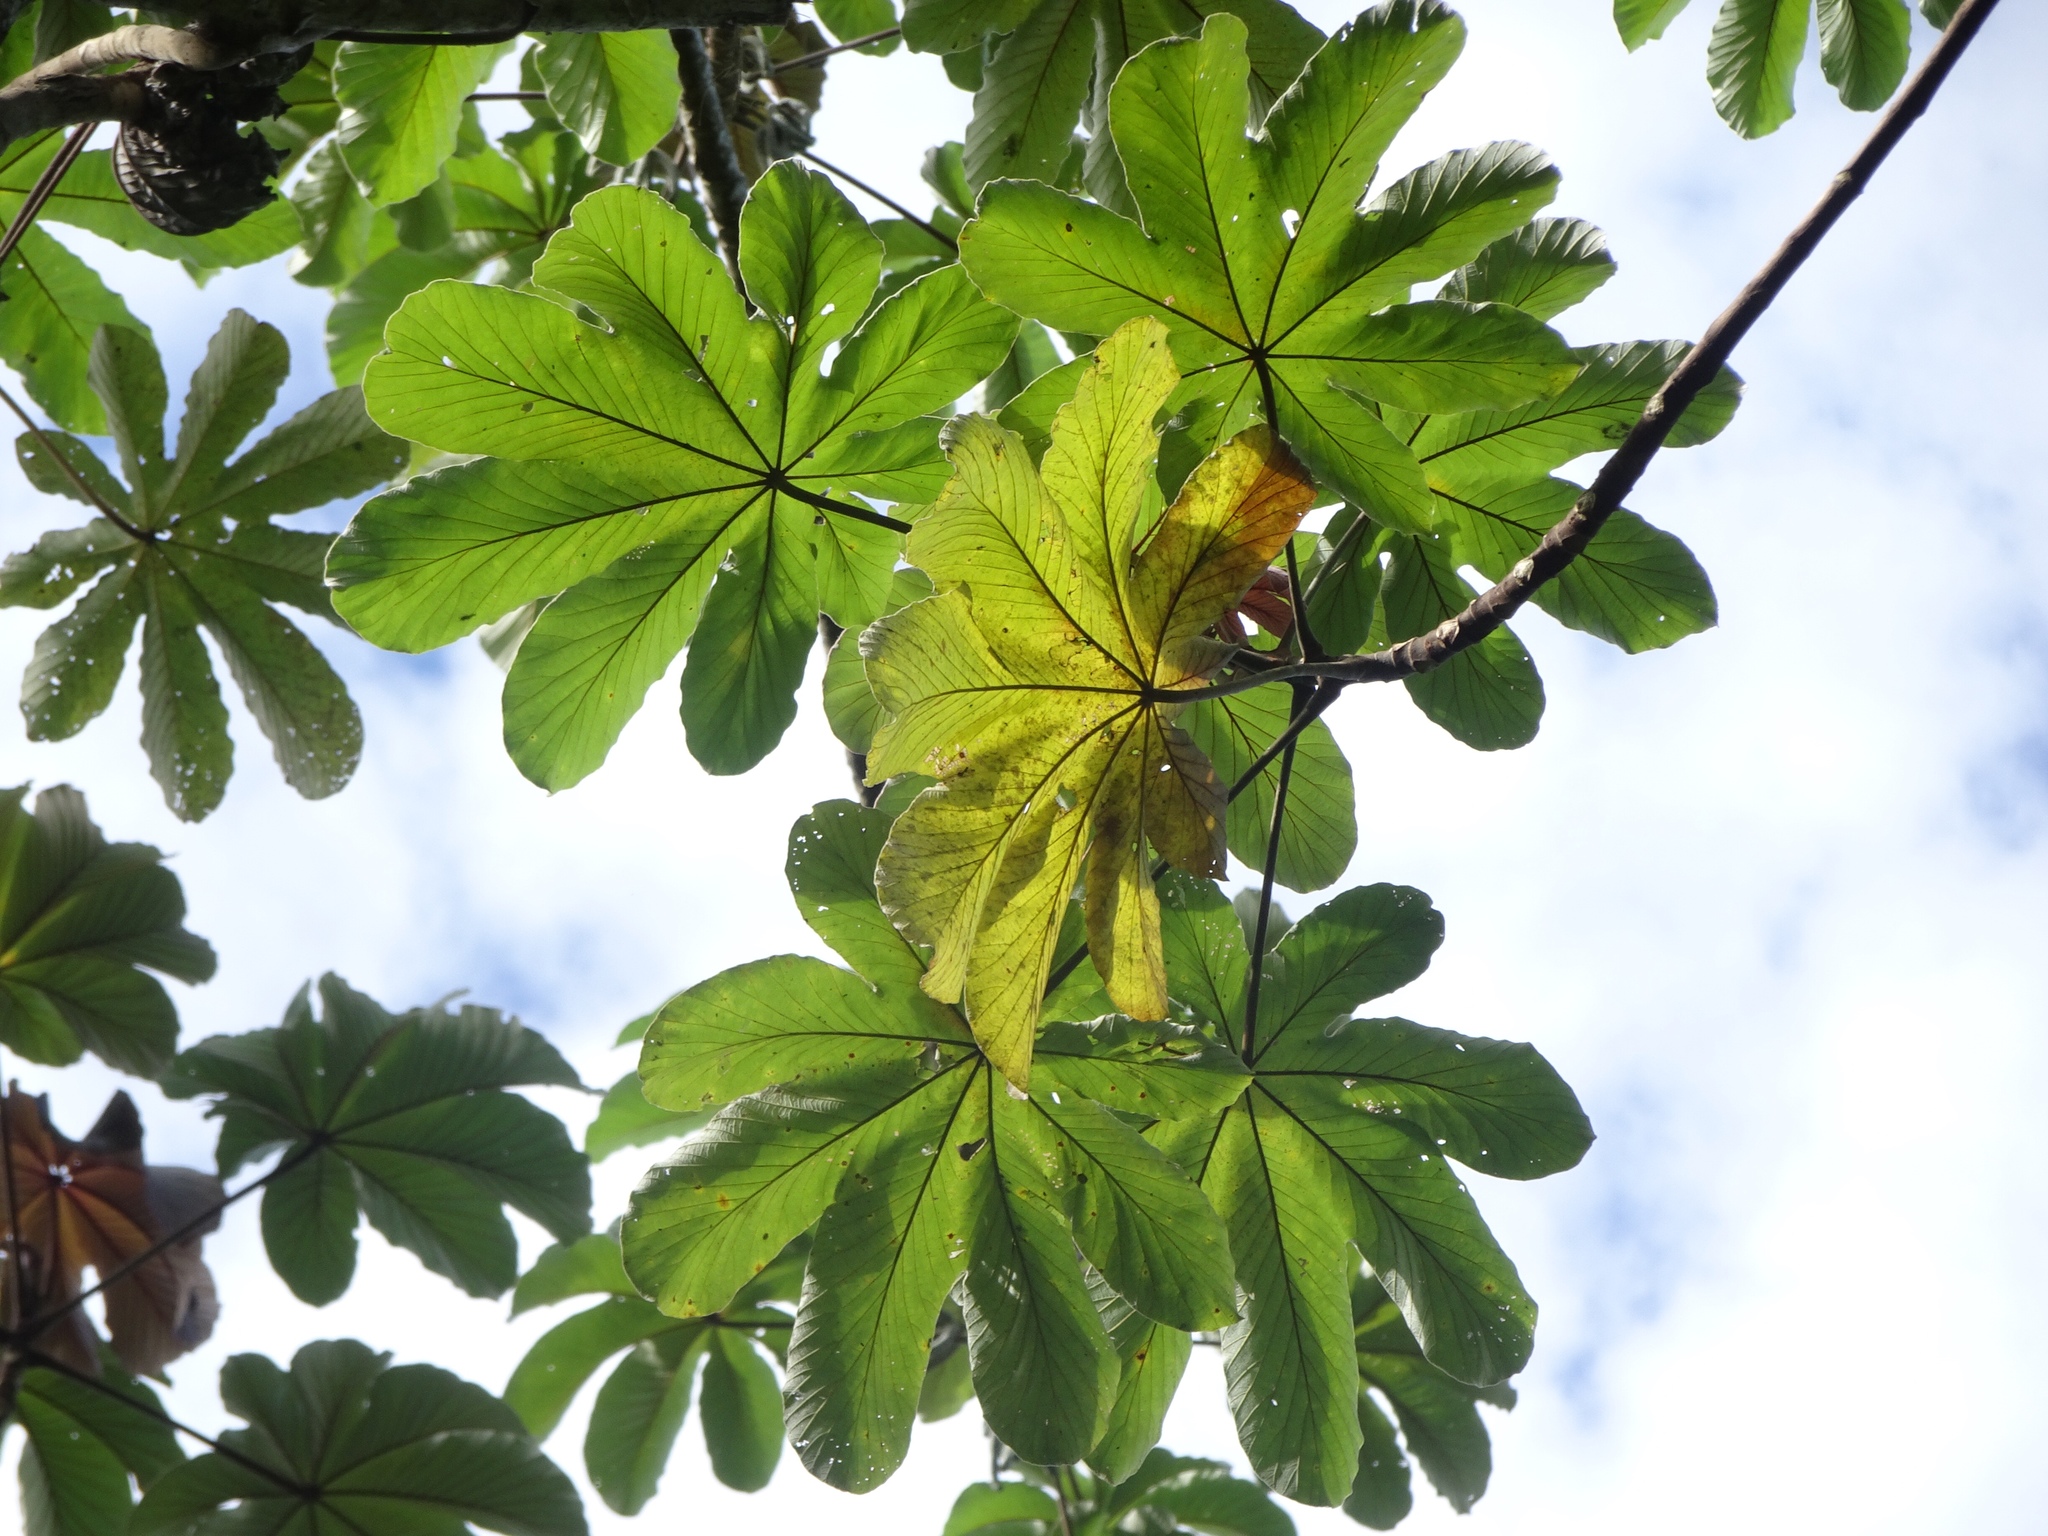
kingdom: Plantae
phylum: Tracheophyta
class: Magnoliopsida
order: Rosales
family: Urticaceae
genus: Cecropia
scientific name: Cecropia peltata
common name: Trumpet-tree
